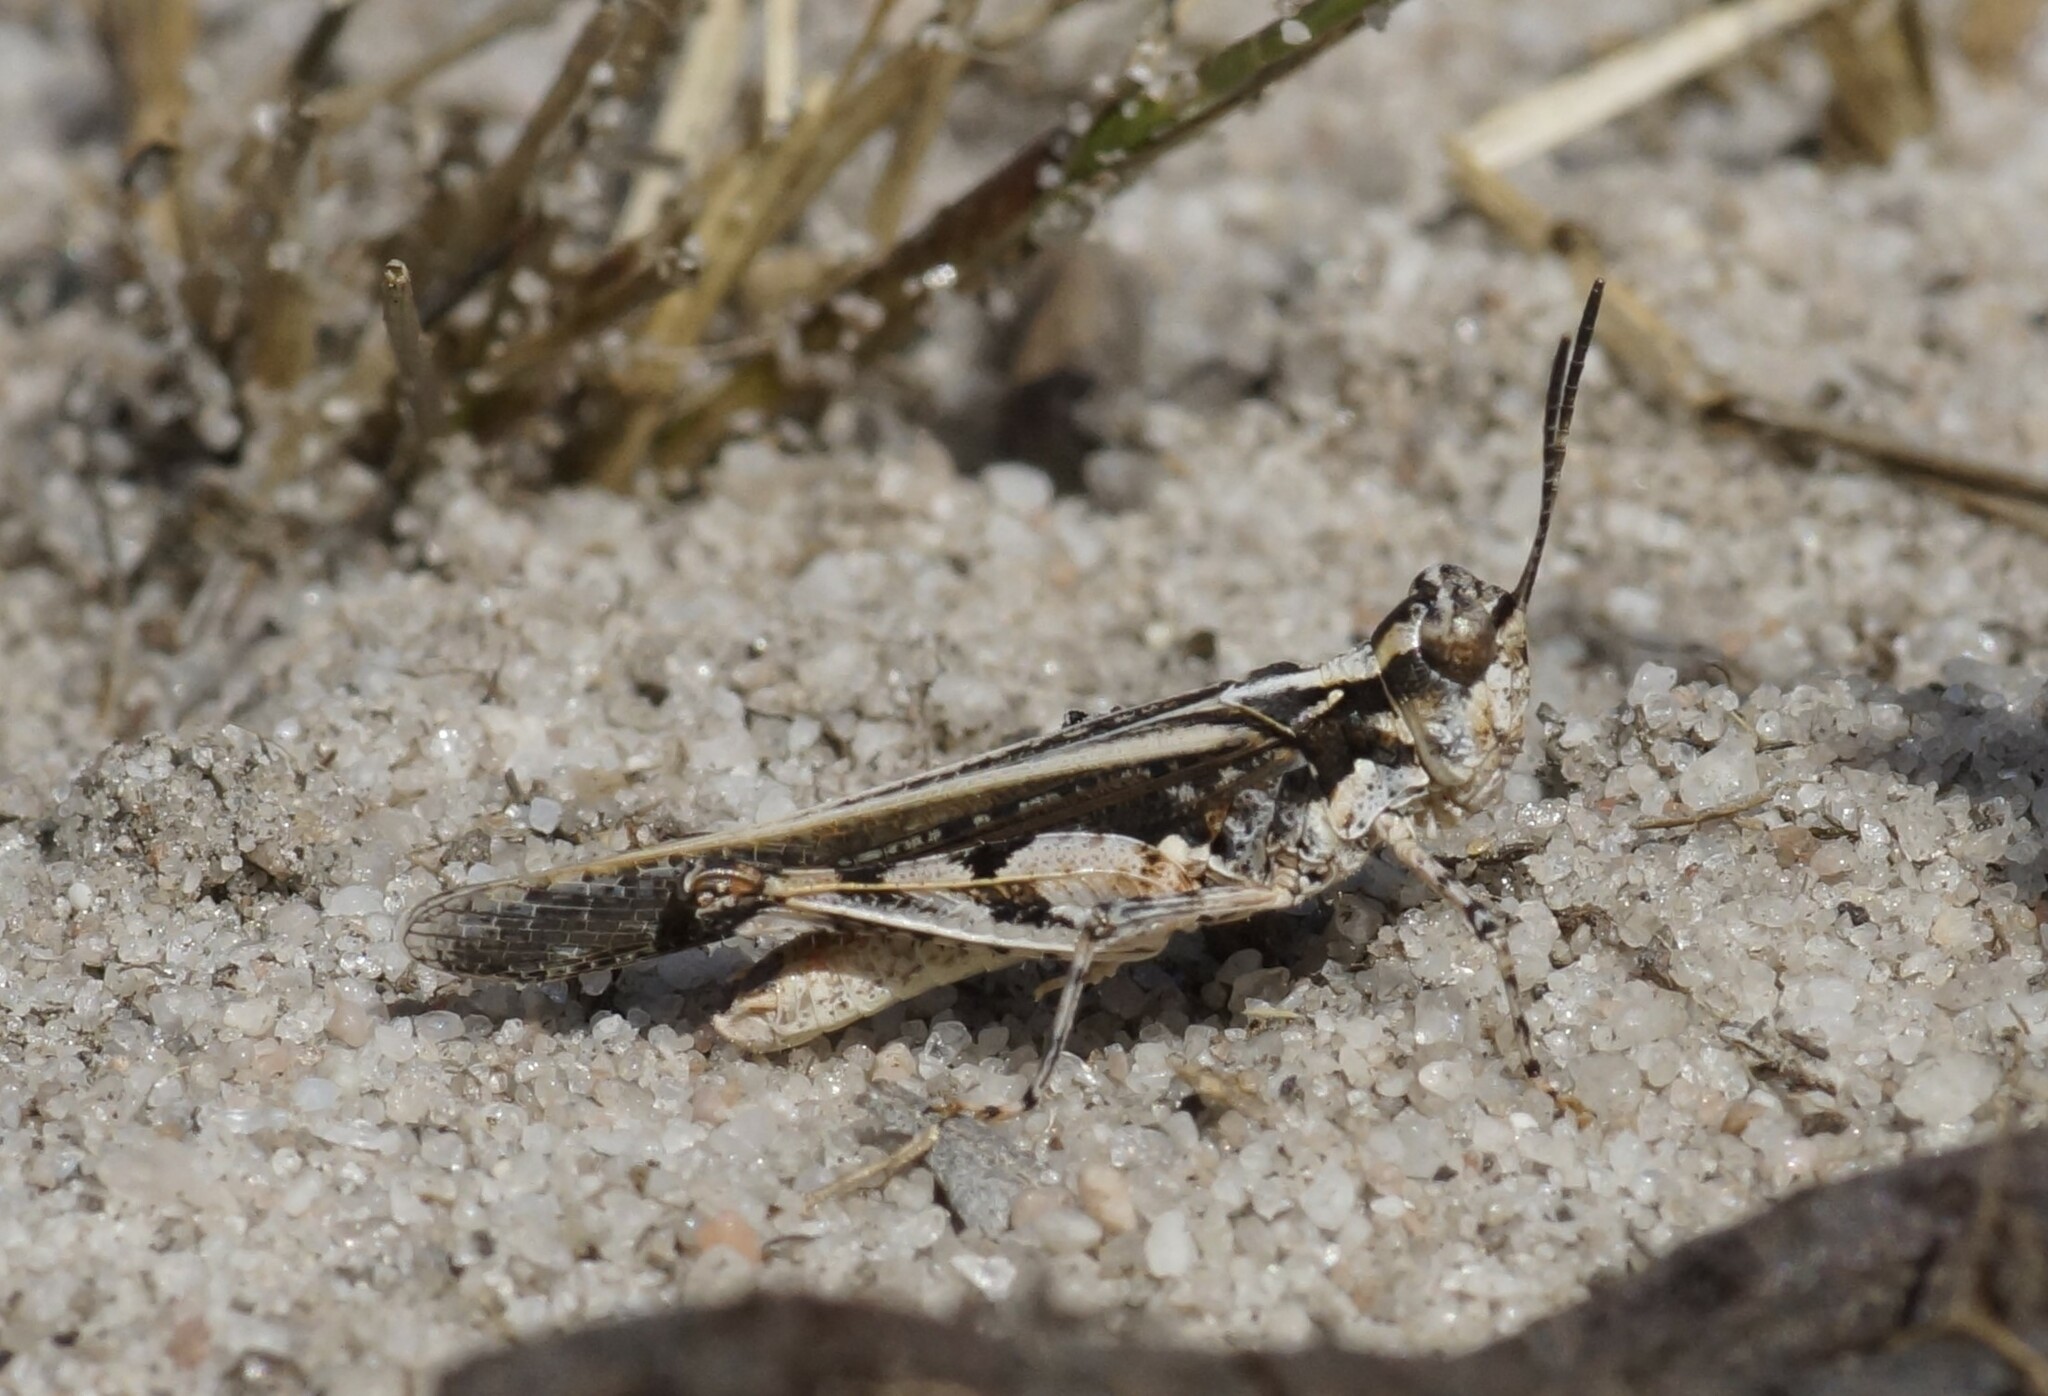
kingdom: Animalia
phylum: Arthropoda
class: Insecta
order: Orthoptera
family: Acrididae
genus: Pycnostictus
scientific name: Pycnostictus seriatus
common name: Common bandwing
